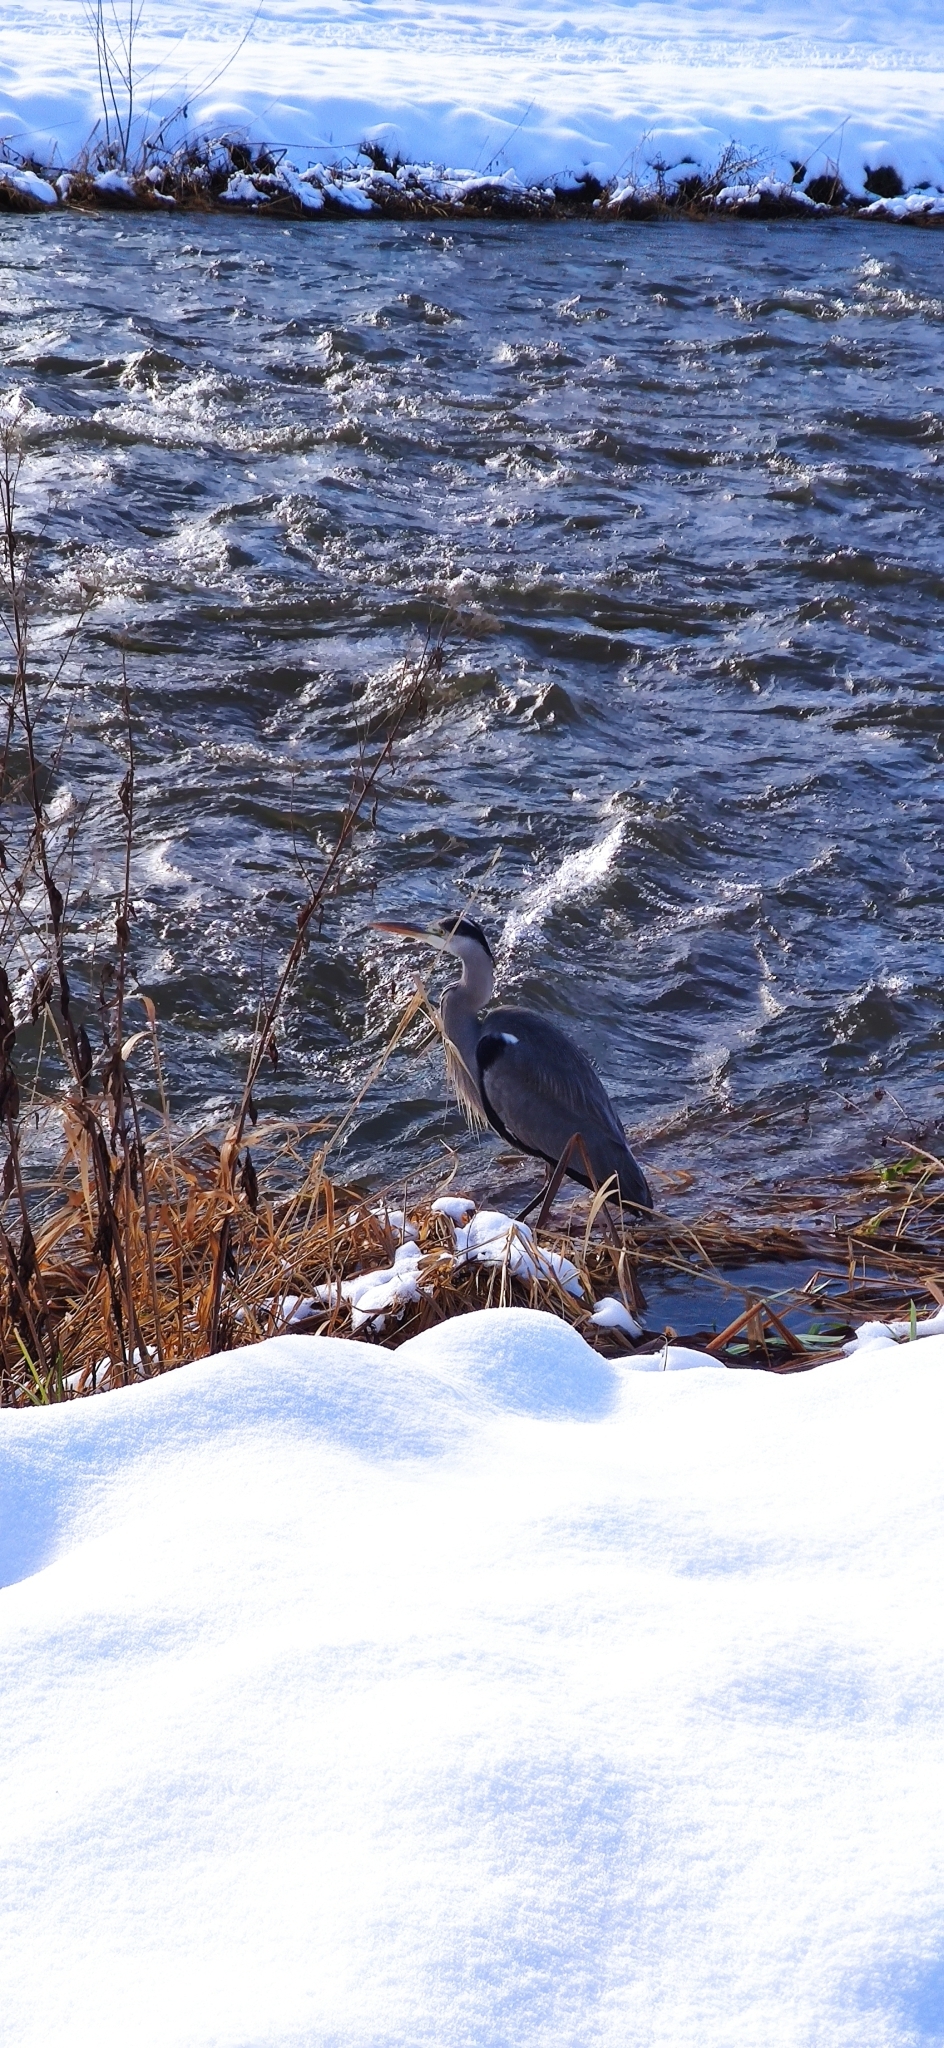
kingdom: Animalia
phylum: Chordata
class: Aves
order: Pelecaniformes
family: Ardeidae
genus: Ardea
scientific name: Ardea cinerea
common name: Grey heron
